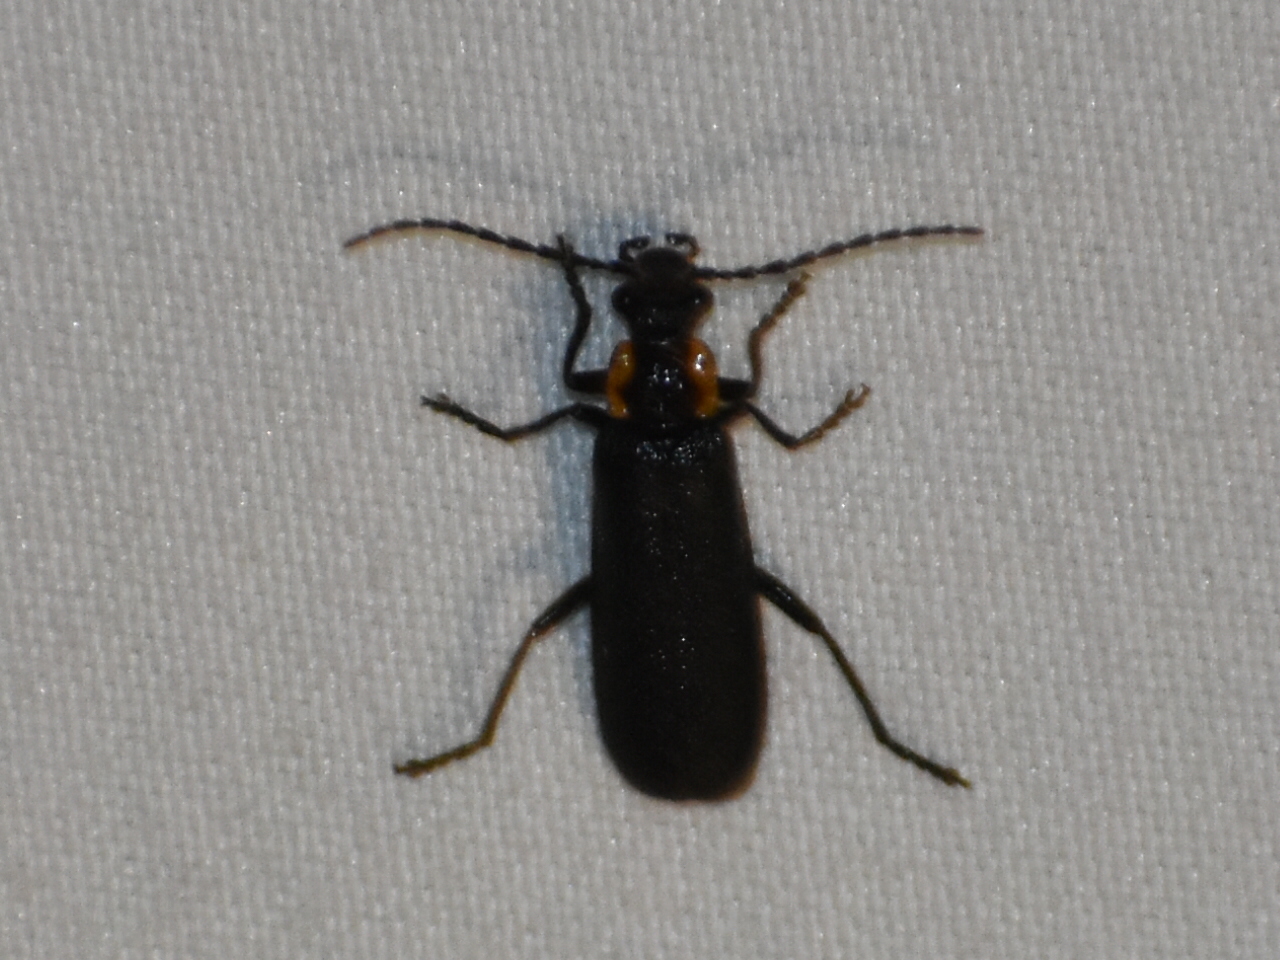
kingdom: Animalia
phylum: Arthropoda
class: Insecta
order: Coleoptera
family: Cantharidae
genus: Podabrus
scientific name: Podabrus frater
